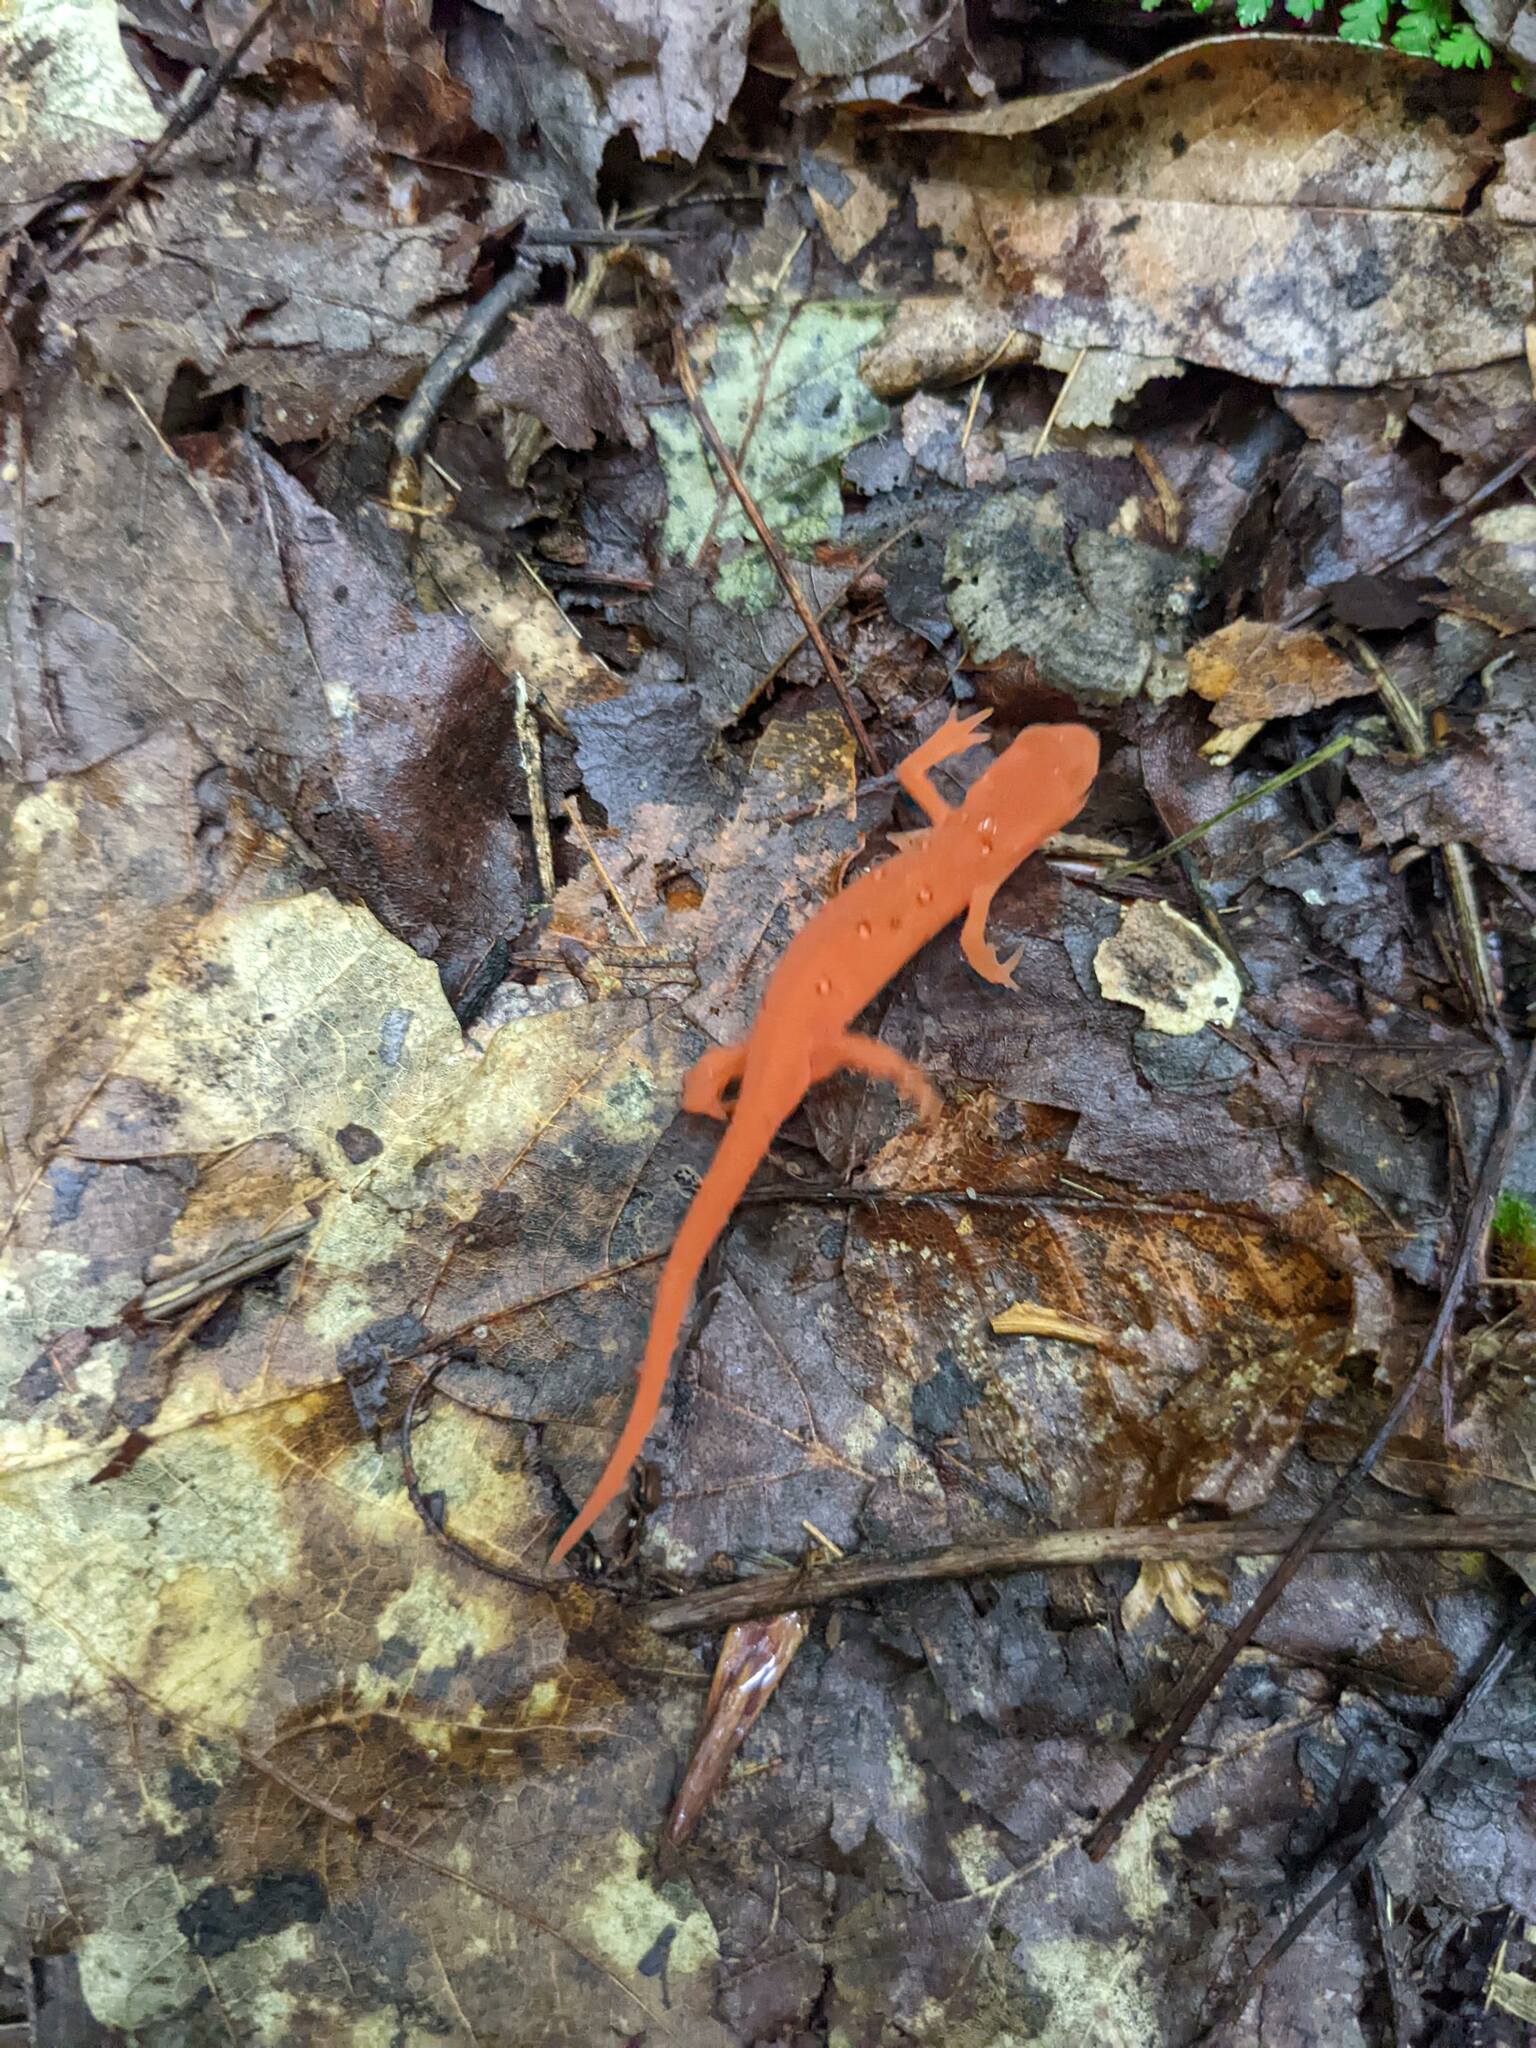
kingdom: Animalia
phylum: Chordata
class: Amphibia
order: Caudata
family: Salamandridae
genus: Notophthalmus
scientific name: Notophthalmus viridescens
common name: Eastern newt
